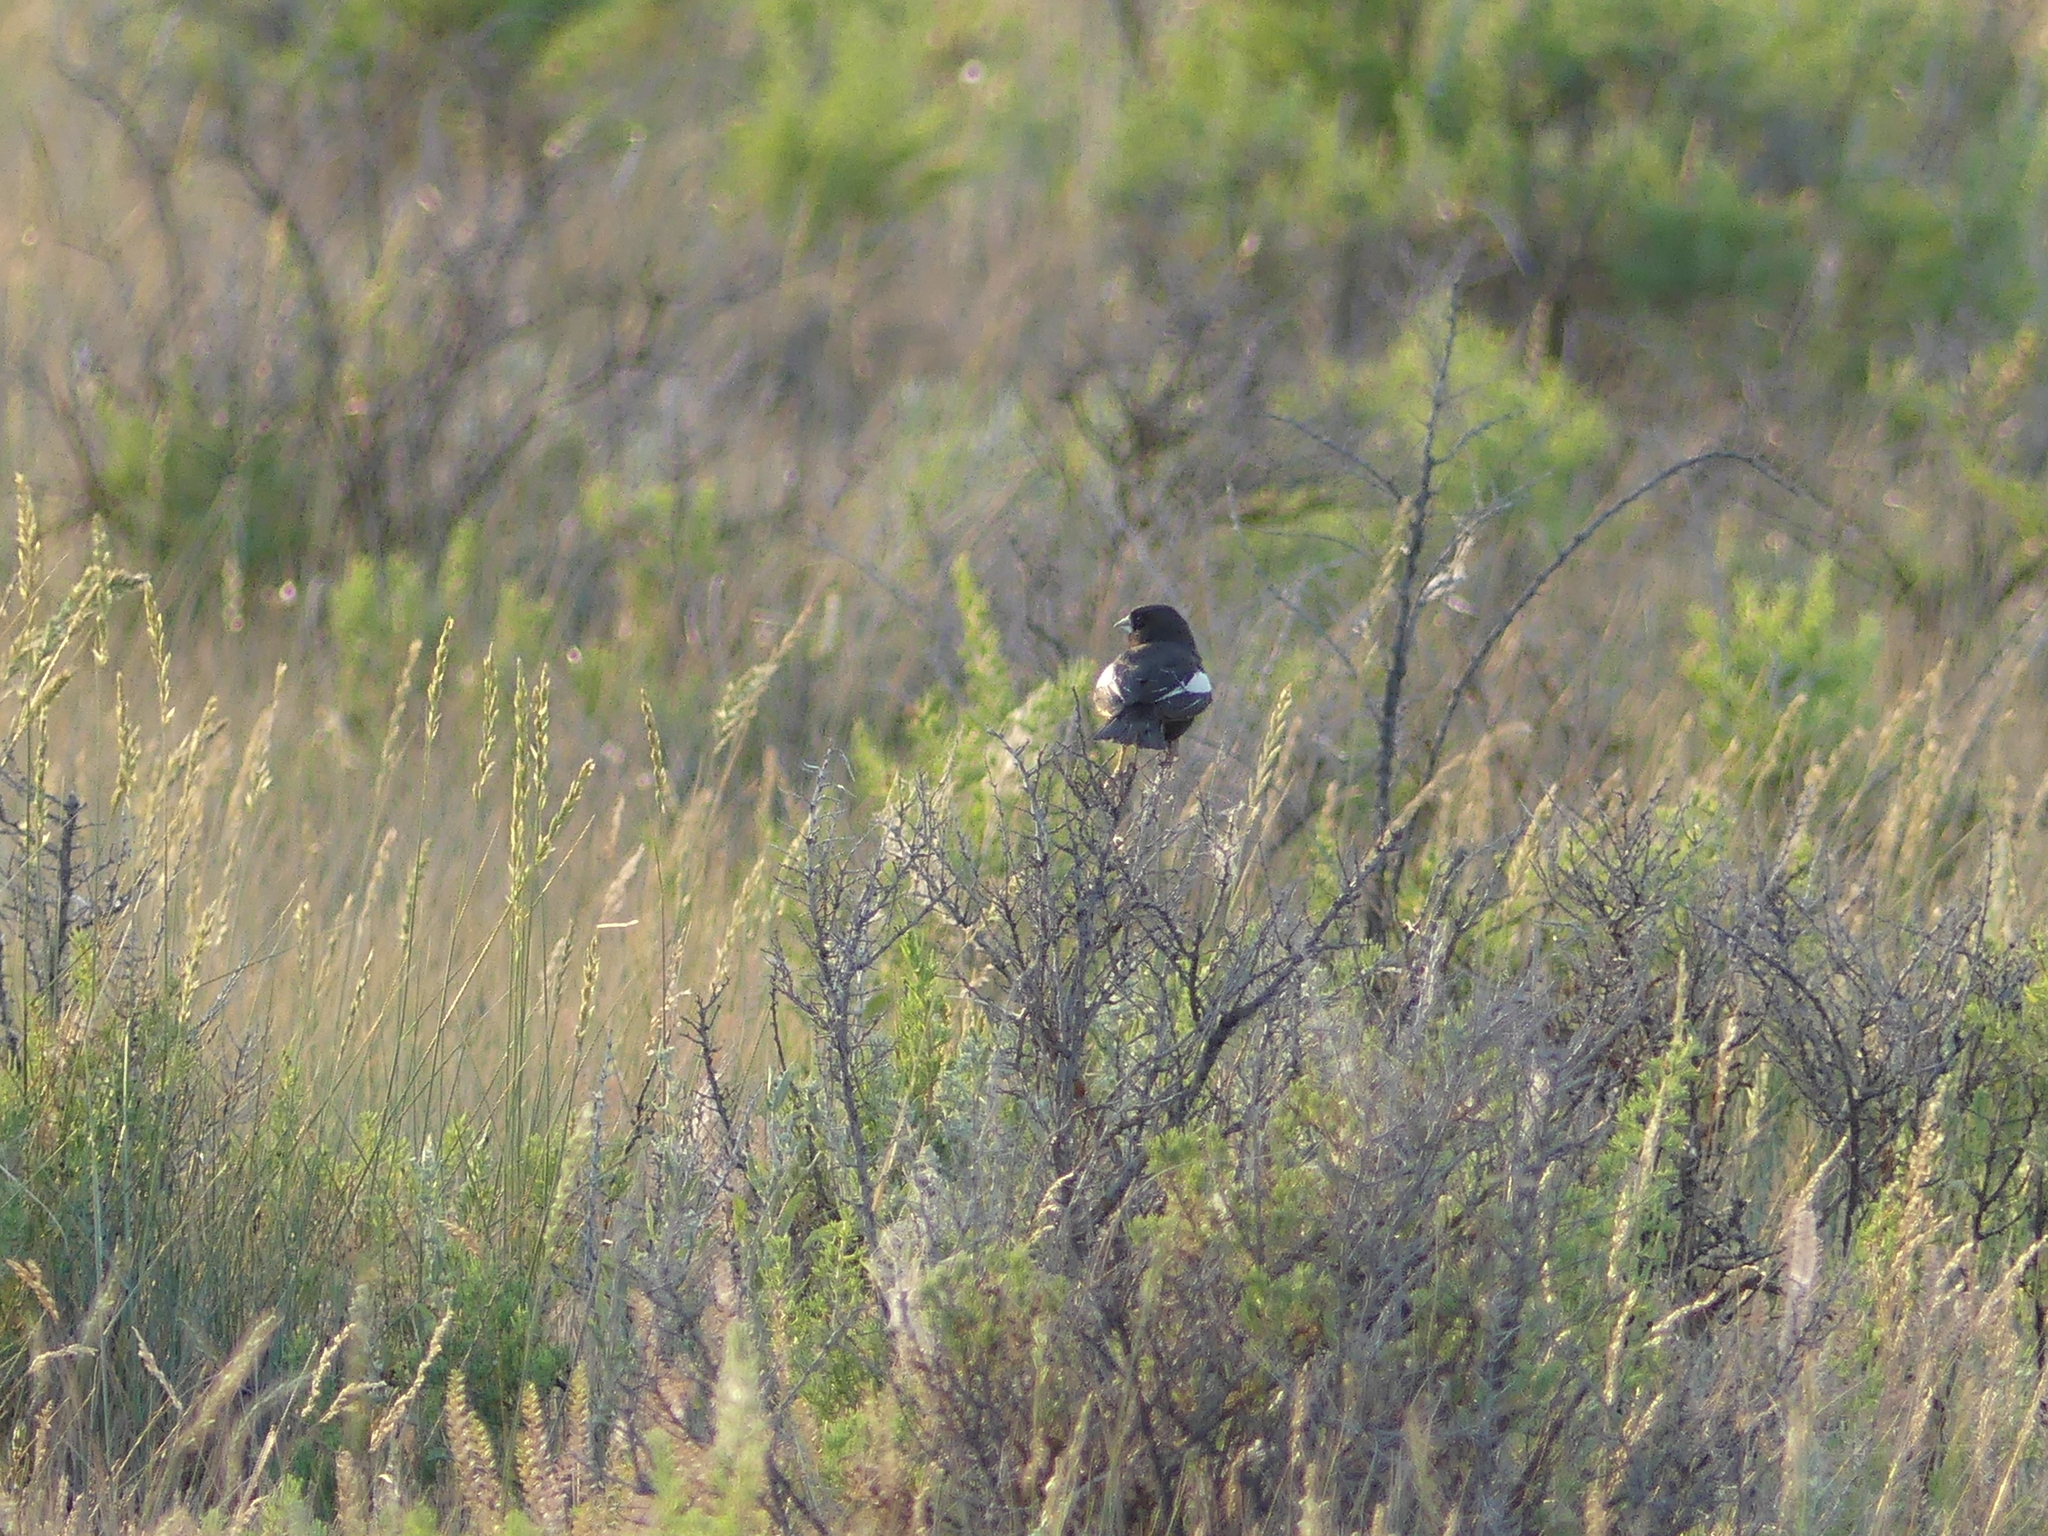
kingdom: Animalia
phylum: Chordata
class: Aves
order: Passeriformes
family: Passerellidae
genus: Calamospiza
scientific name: Calamospiza melanocorys
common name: Lark bunting
